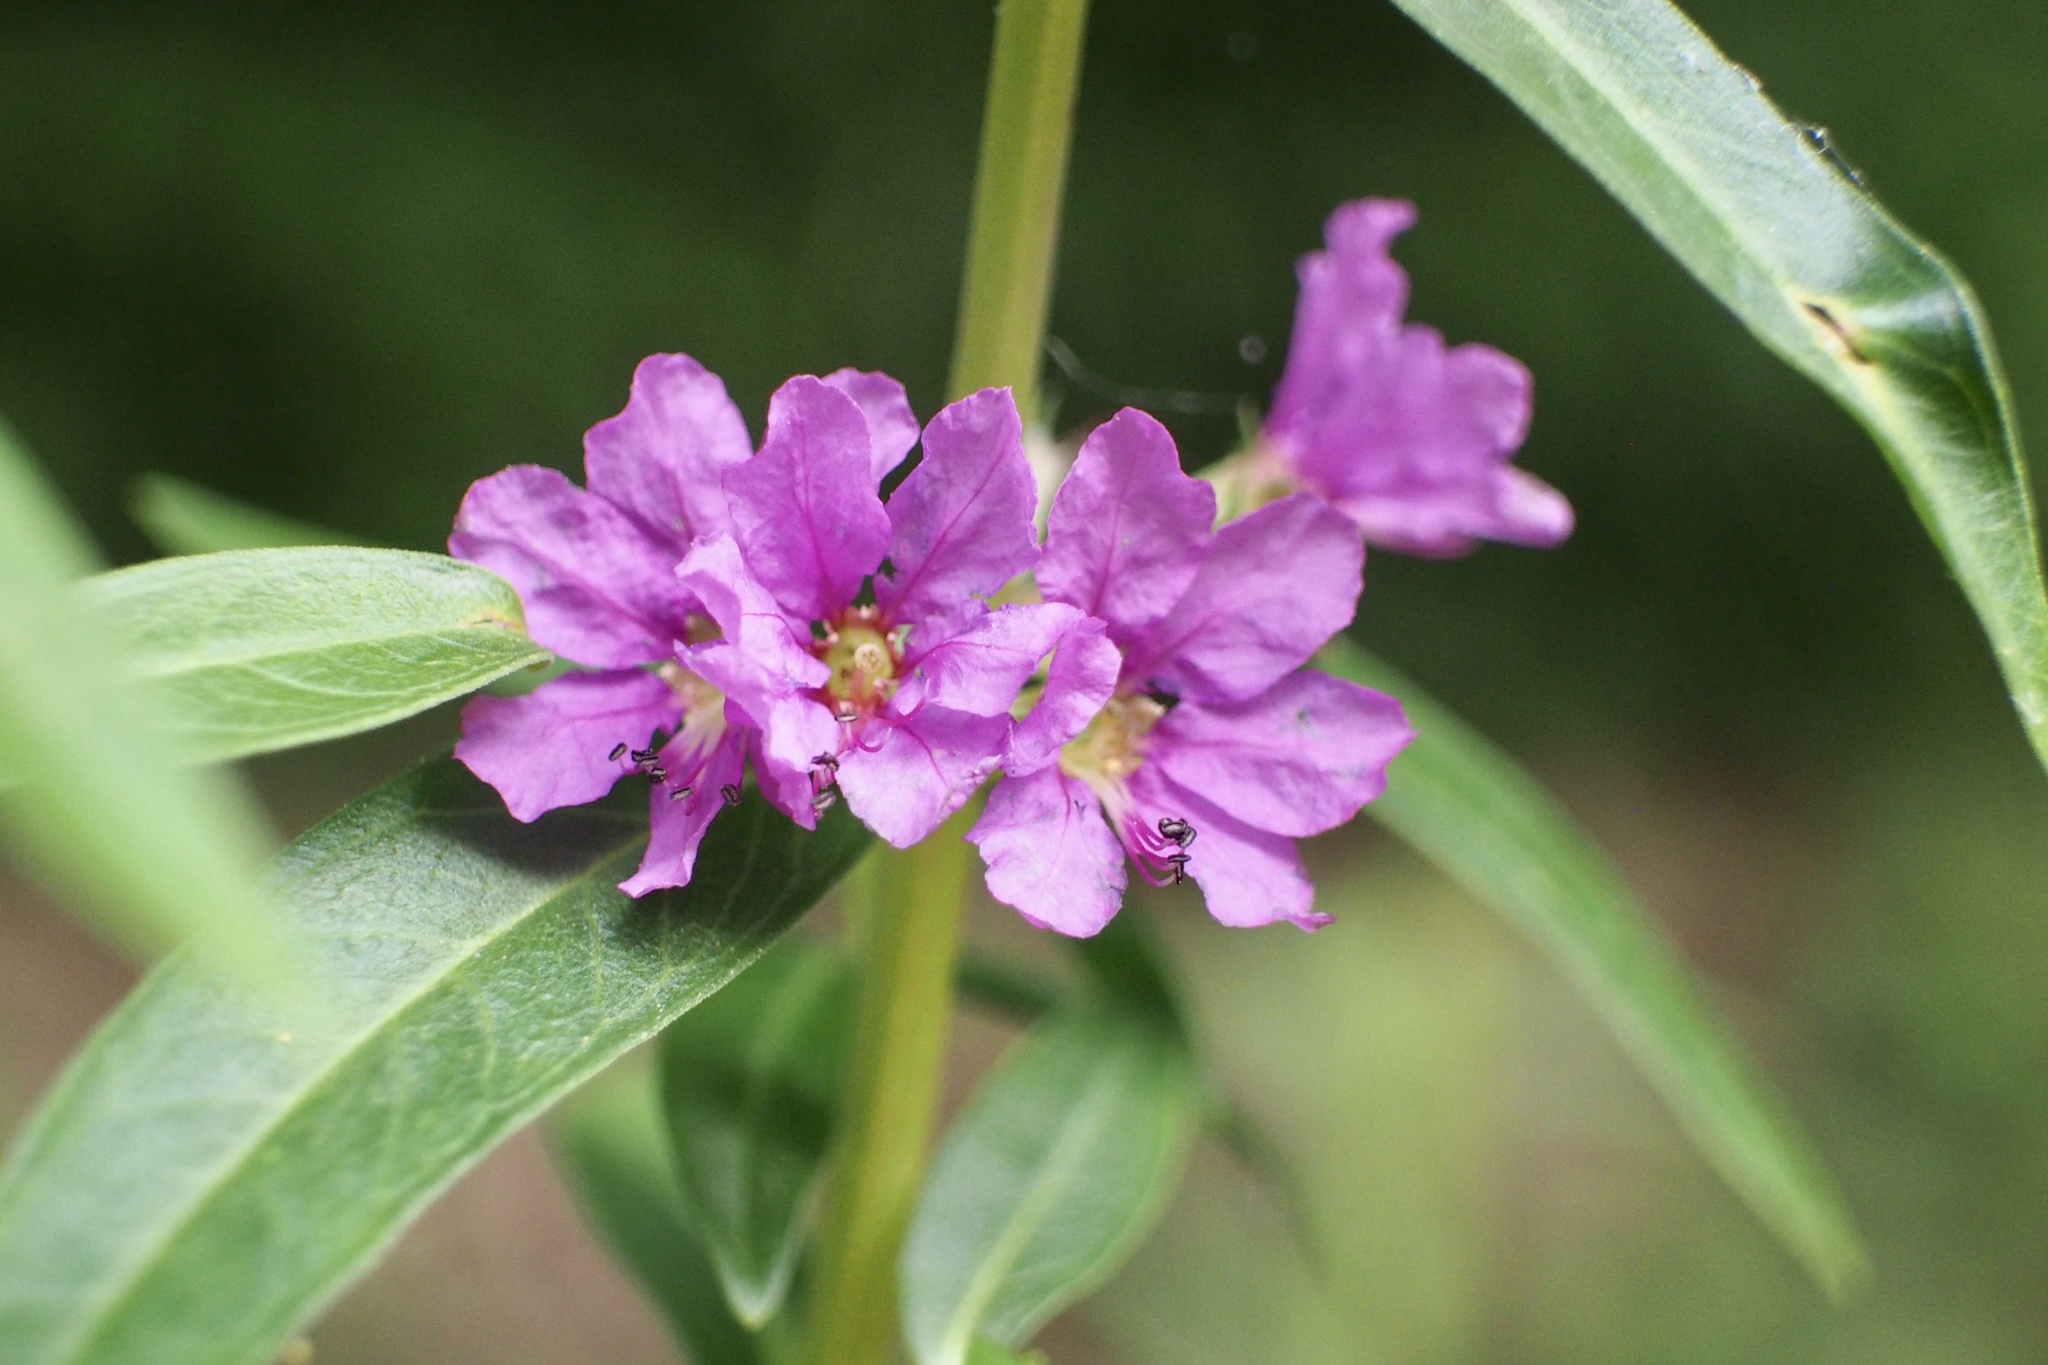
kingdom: Plantae
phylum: Tracheophyta
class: Magnoliopsida
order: Myrtales
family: Lythraceae
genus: Lythrum
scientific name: Lythrum salicaria
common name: Purple loosestrife
